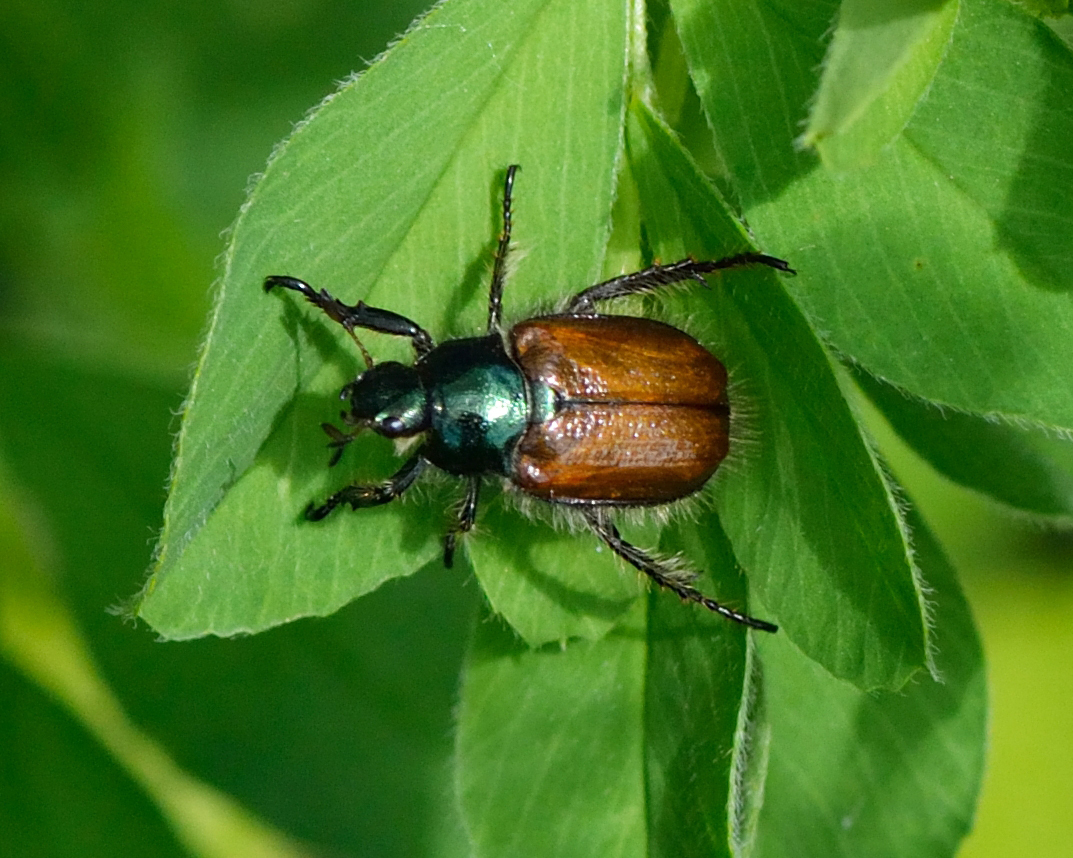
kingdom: Animalia
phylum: Arthropoda
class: Insecta
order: Coleoptera
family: Scarabaeidae
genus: Phyllopertha
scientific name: Phyllopertha horticola
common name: Garden chafer
